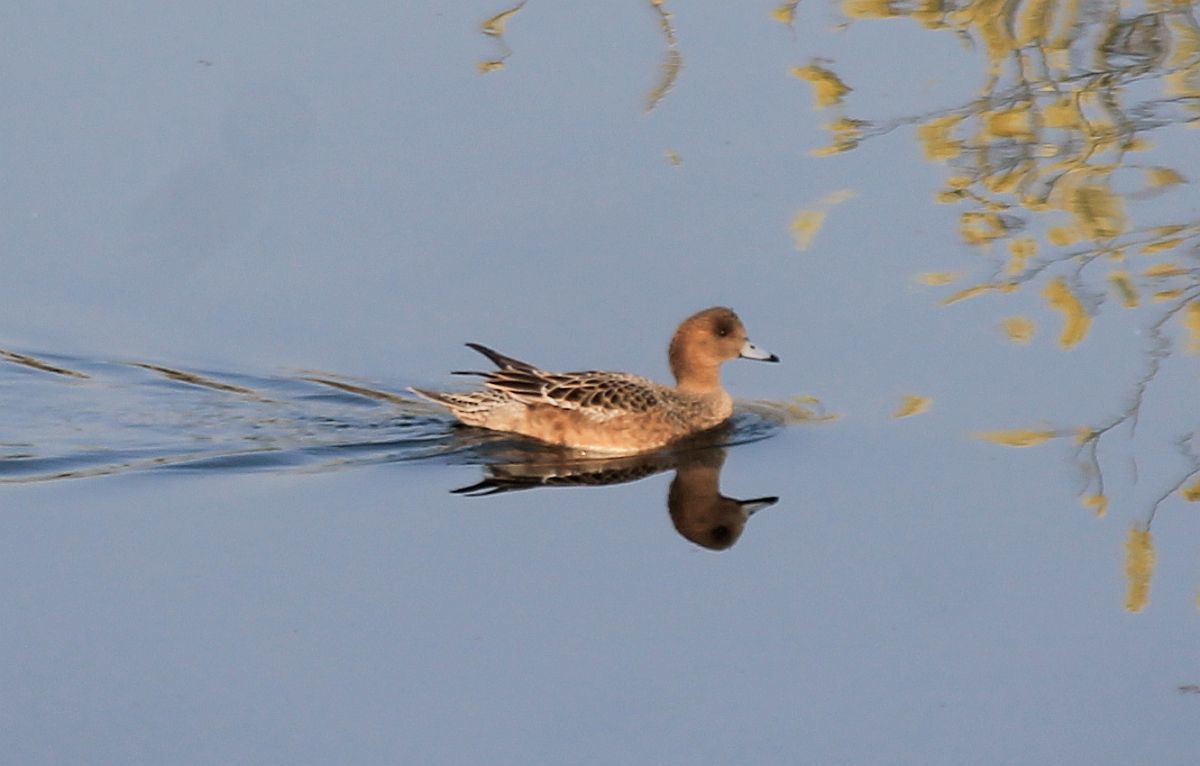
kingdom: Animalia
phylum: Chordata
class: Aves
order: Anseriformes
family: Anatidae
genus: Mareca
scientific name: Mareca penelope
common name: Eurasian wigeon
